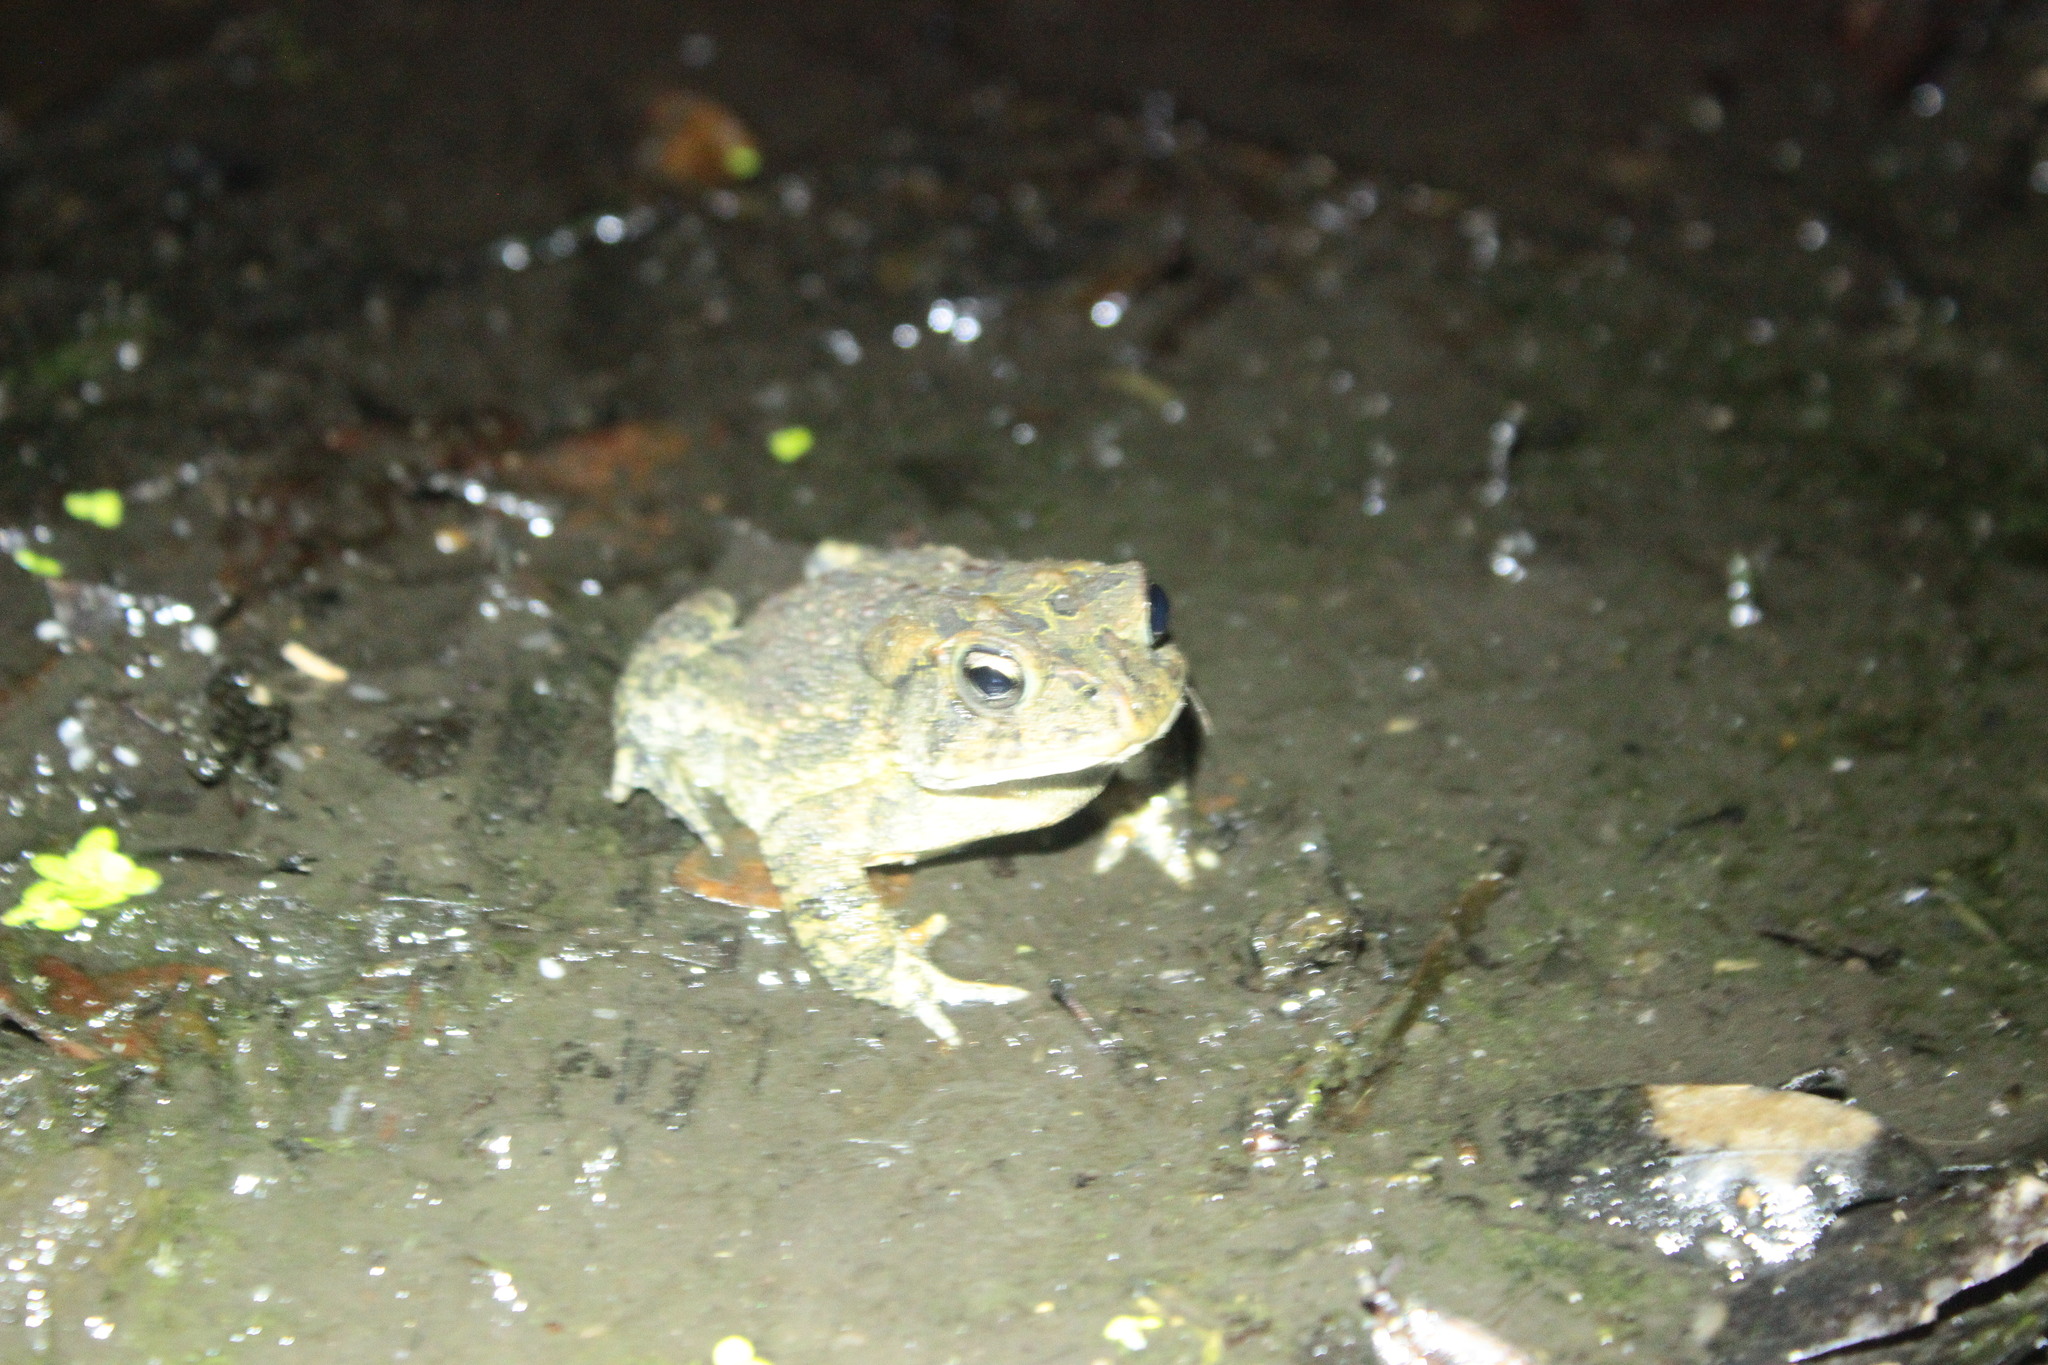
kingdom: Animalia
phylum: Chordata
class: Amphibia
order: Anura
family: Bufonidae
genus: Anaxyrus
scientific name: Anaxyrus terrestris
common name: Southern toad
